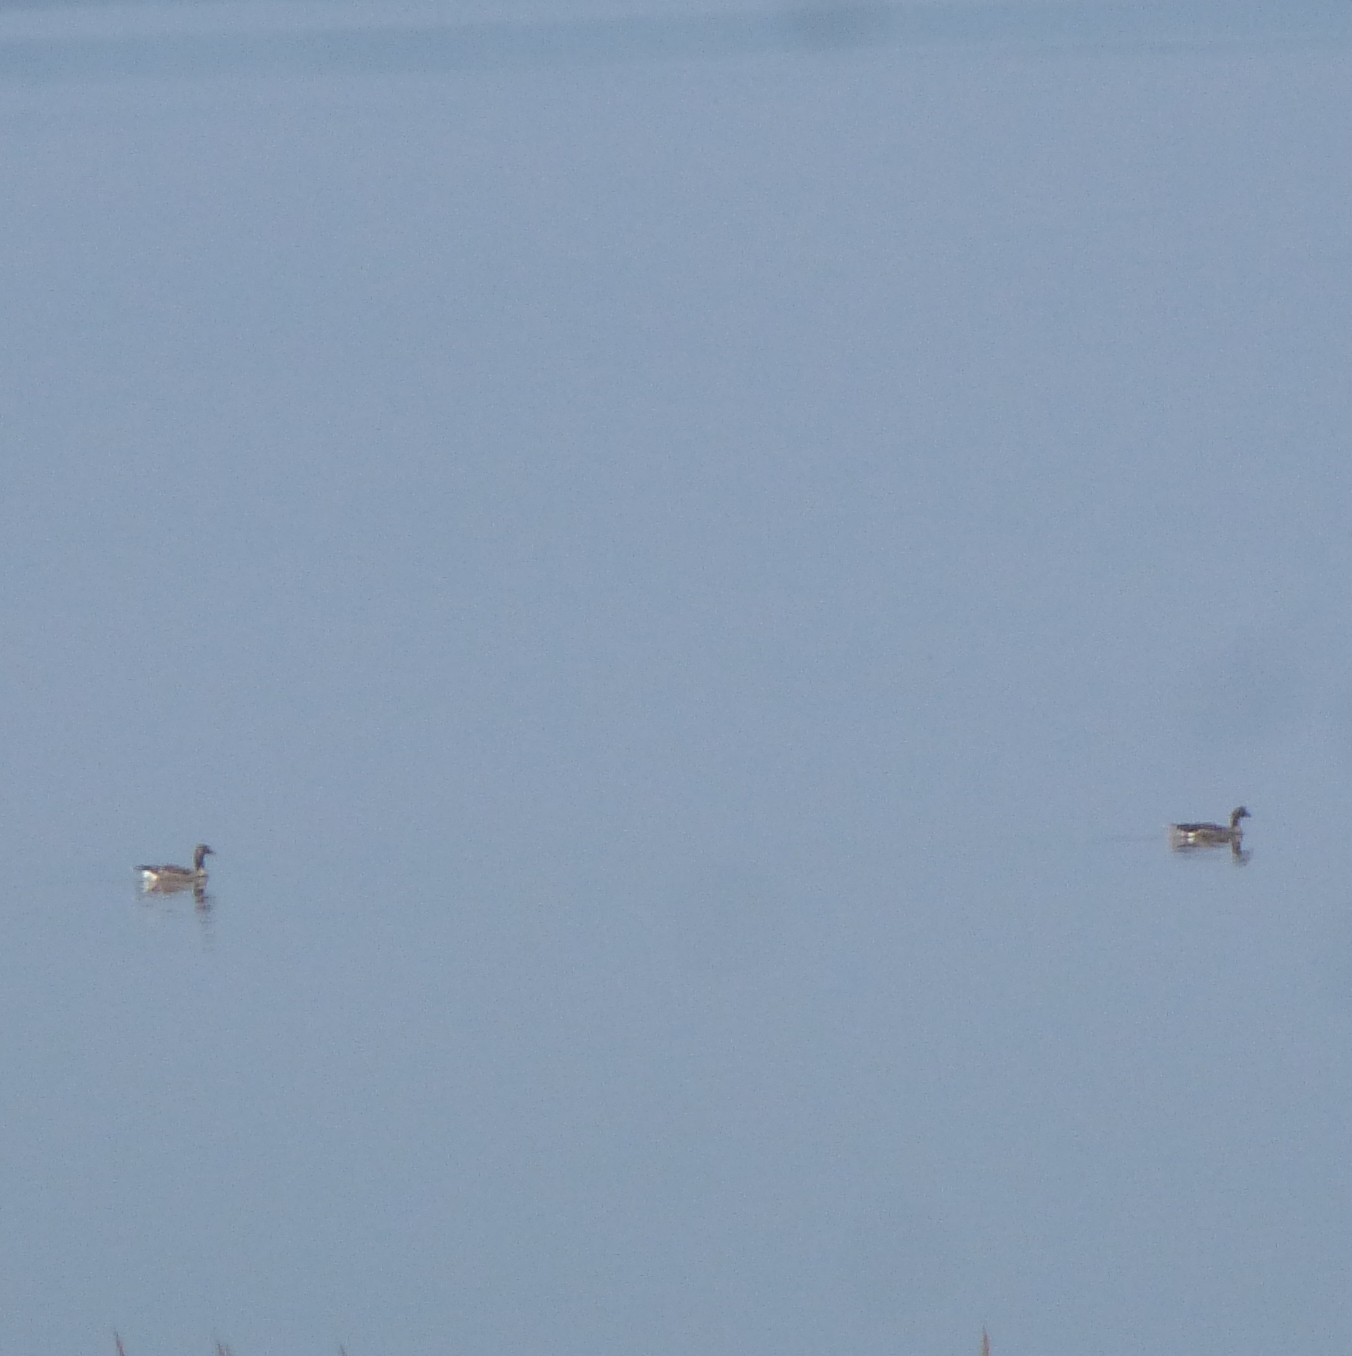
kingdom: Animalia
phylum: Chordata
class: Aves
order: Anseriformes
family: Anatidae
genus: Anser
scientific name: Anser anser
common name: Greylag goose
